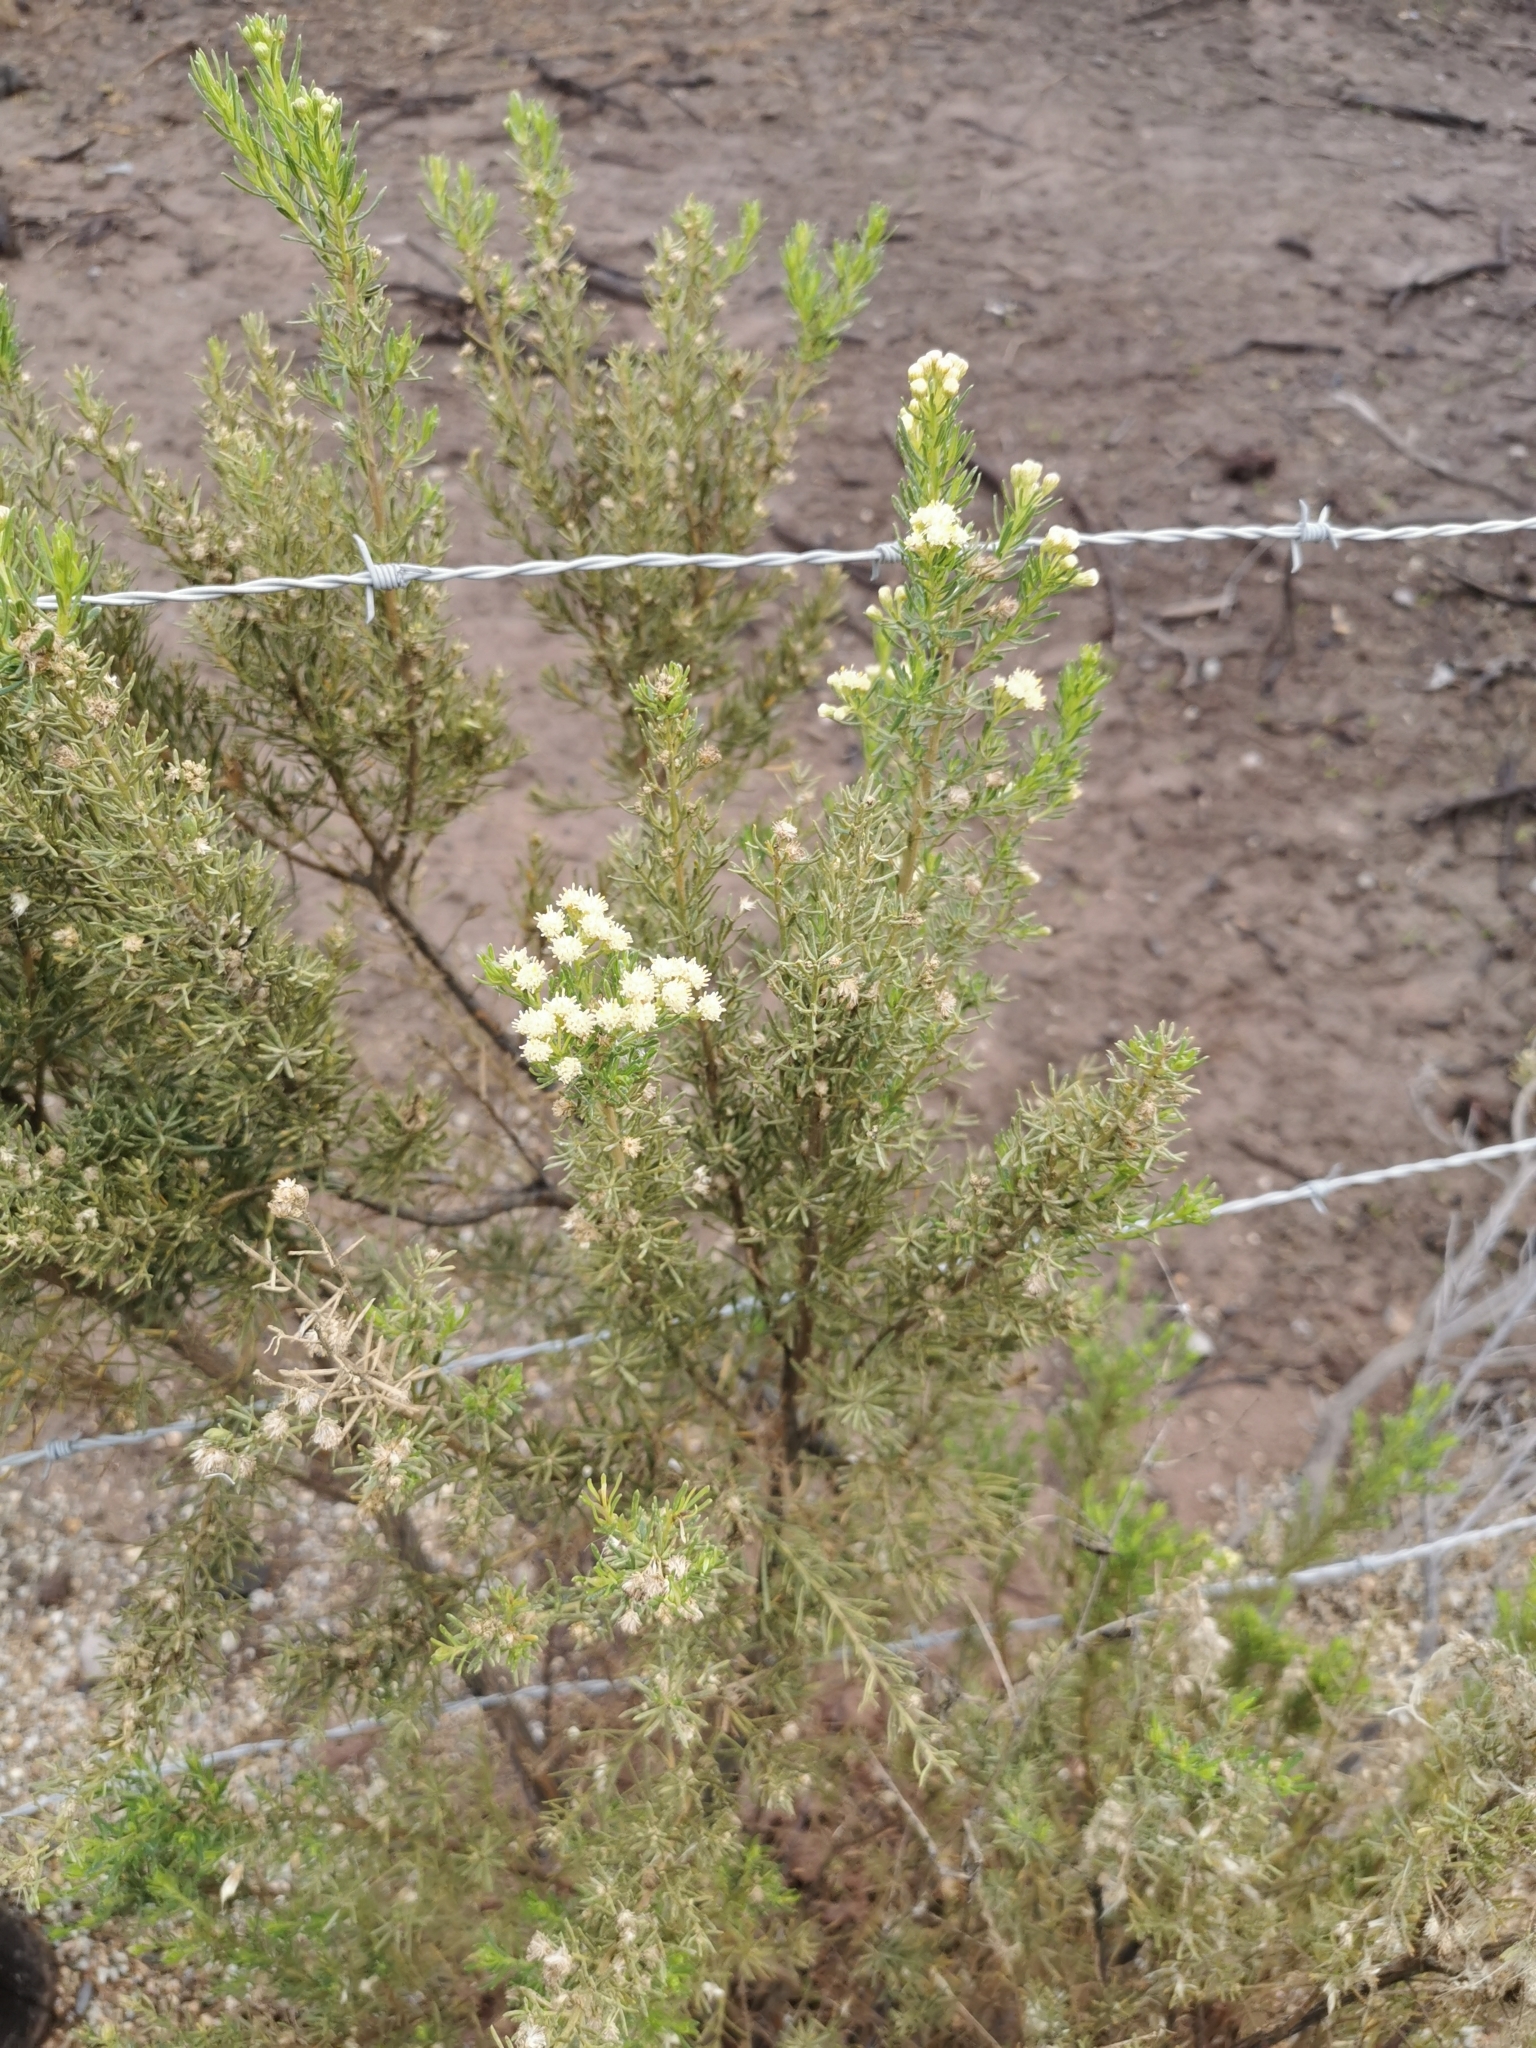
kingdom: Plantae
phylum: Tracheophyta
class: Magnoliopsida
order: Asterales
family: Asteraceae
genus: Baccharis
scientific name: Baccharis linearis
